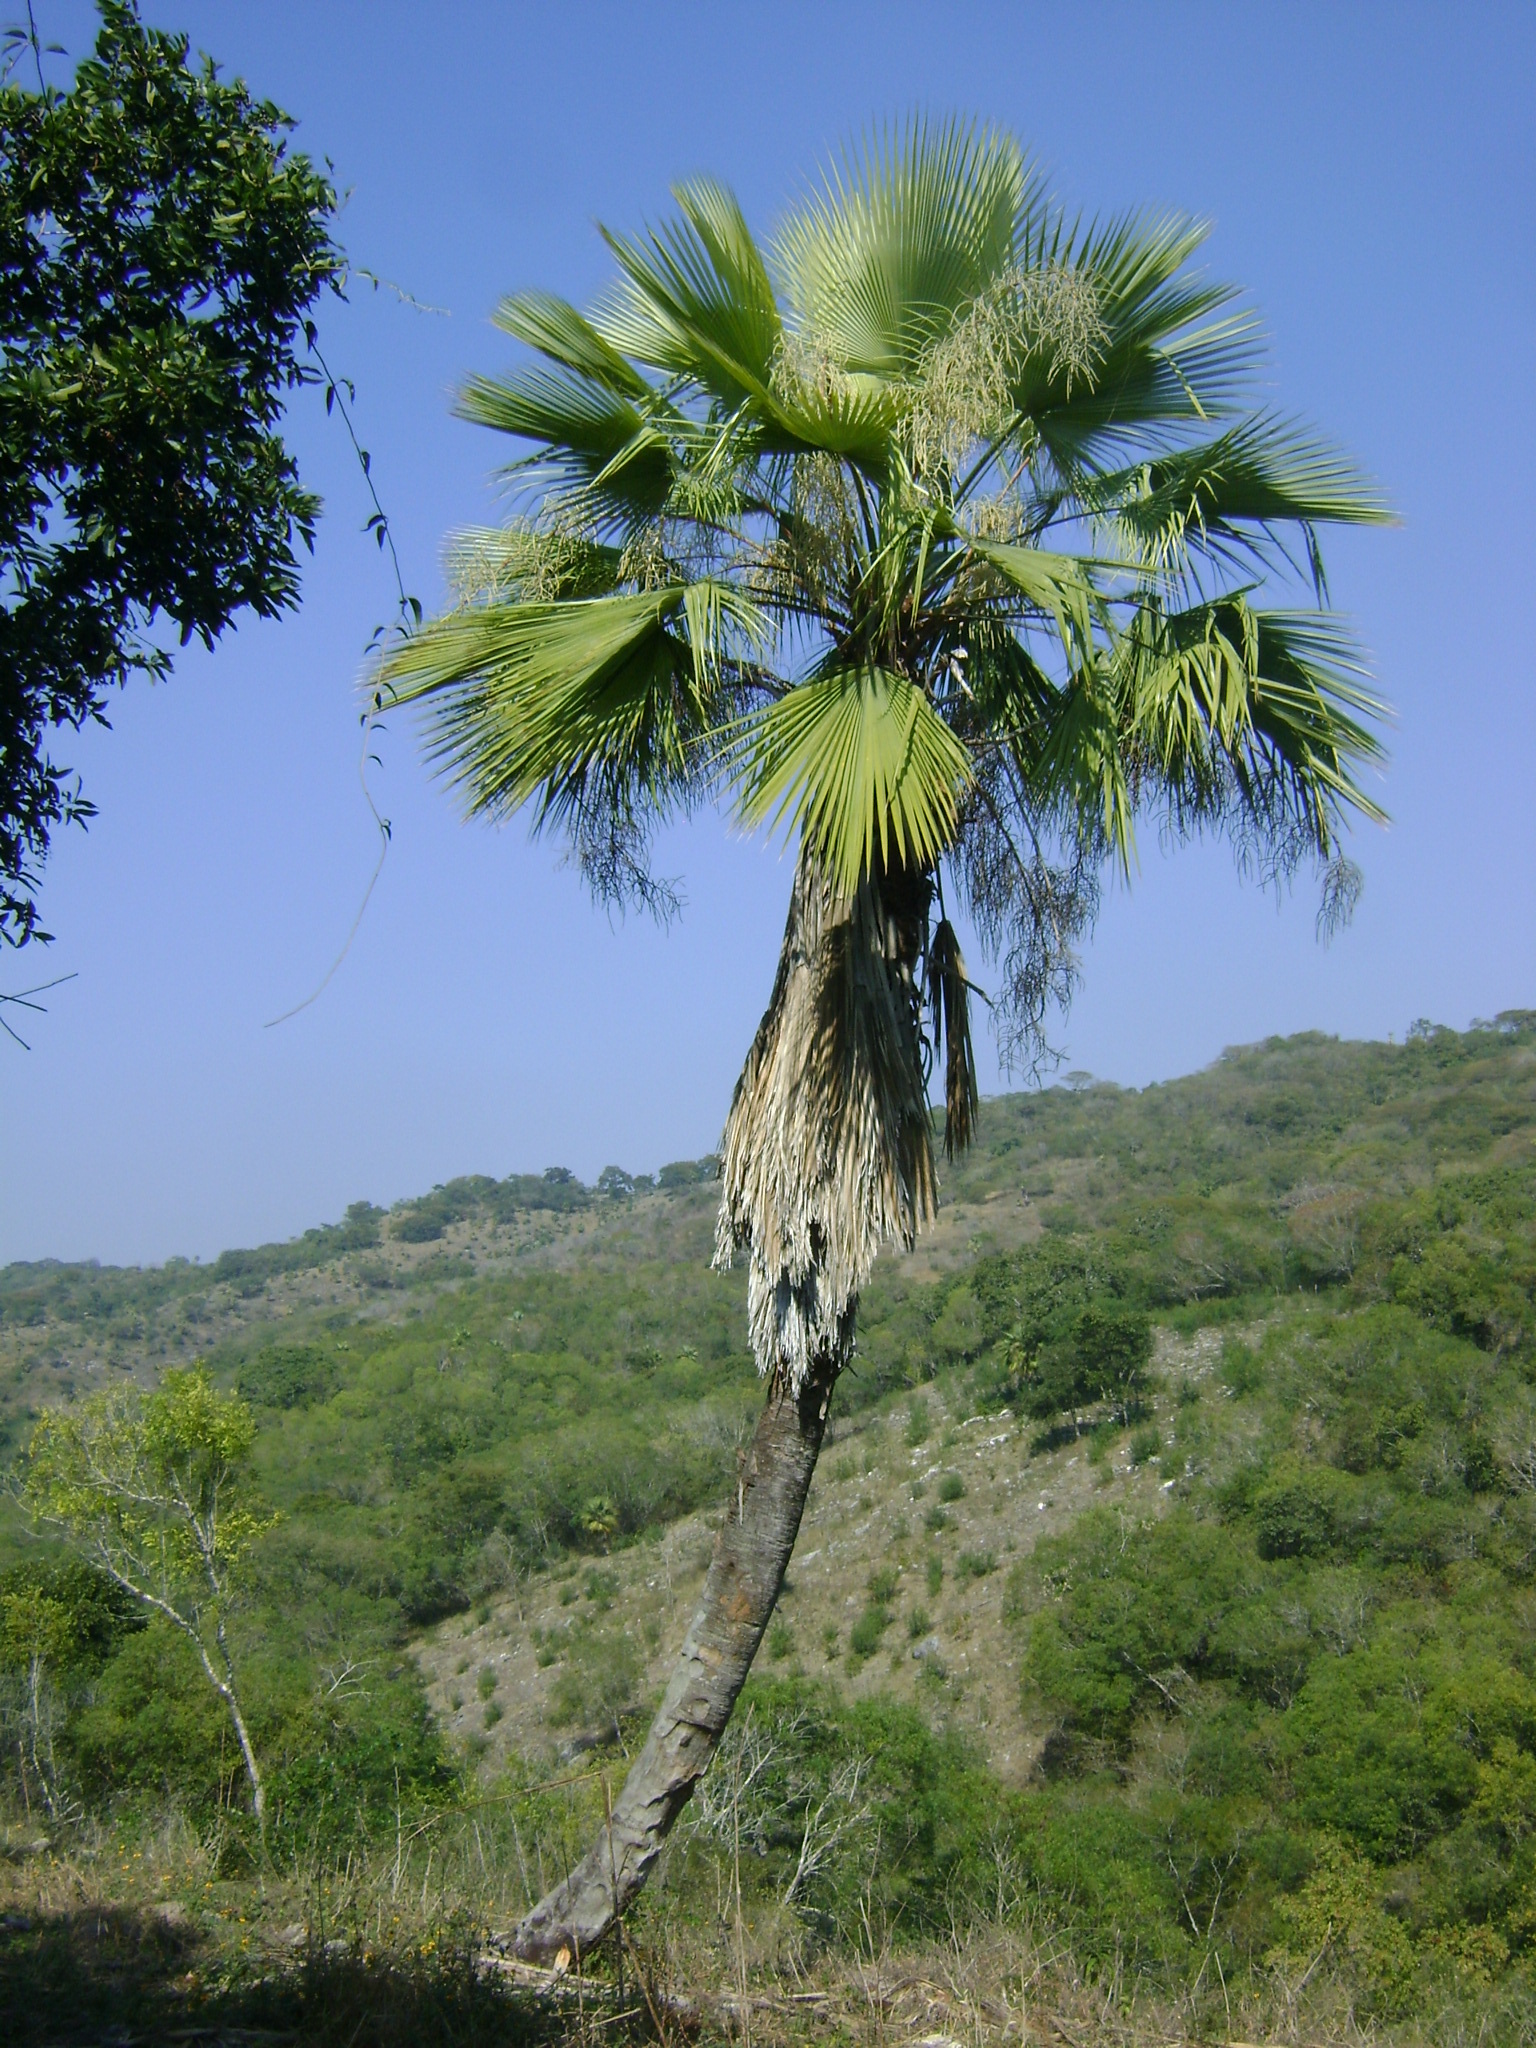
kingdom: Plantae
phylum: Tracheophyta
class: Liliopsida
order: Arecales
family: Arecaceae
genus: Brahea
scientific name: Brahea dulcis
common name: Apak palm
